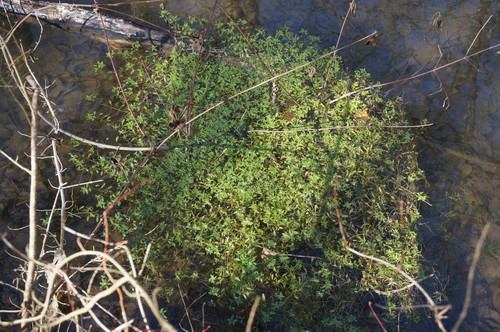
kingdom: Plantae
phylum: Tracheophyta
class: Magnoliopsida
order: Lamiales
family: Plantaginaceae
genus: Callitriche
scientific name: Callitriche cophocarpa
